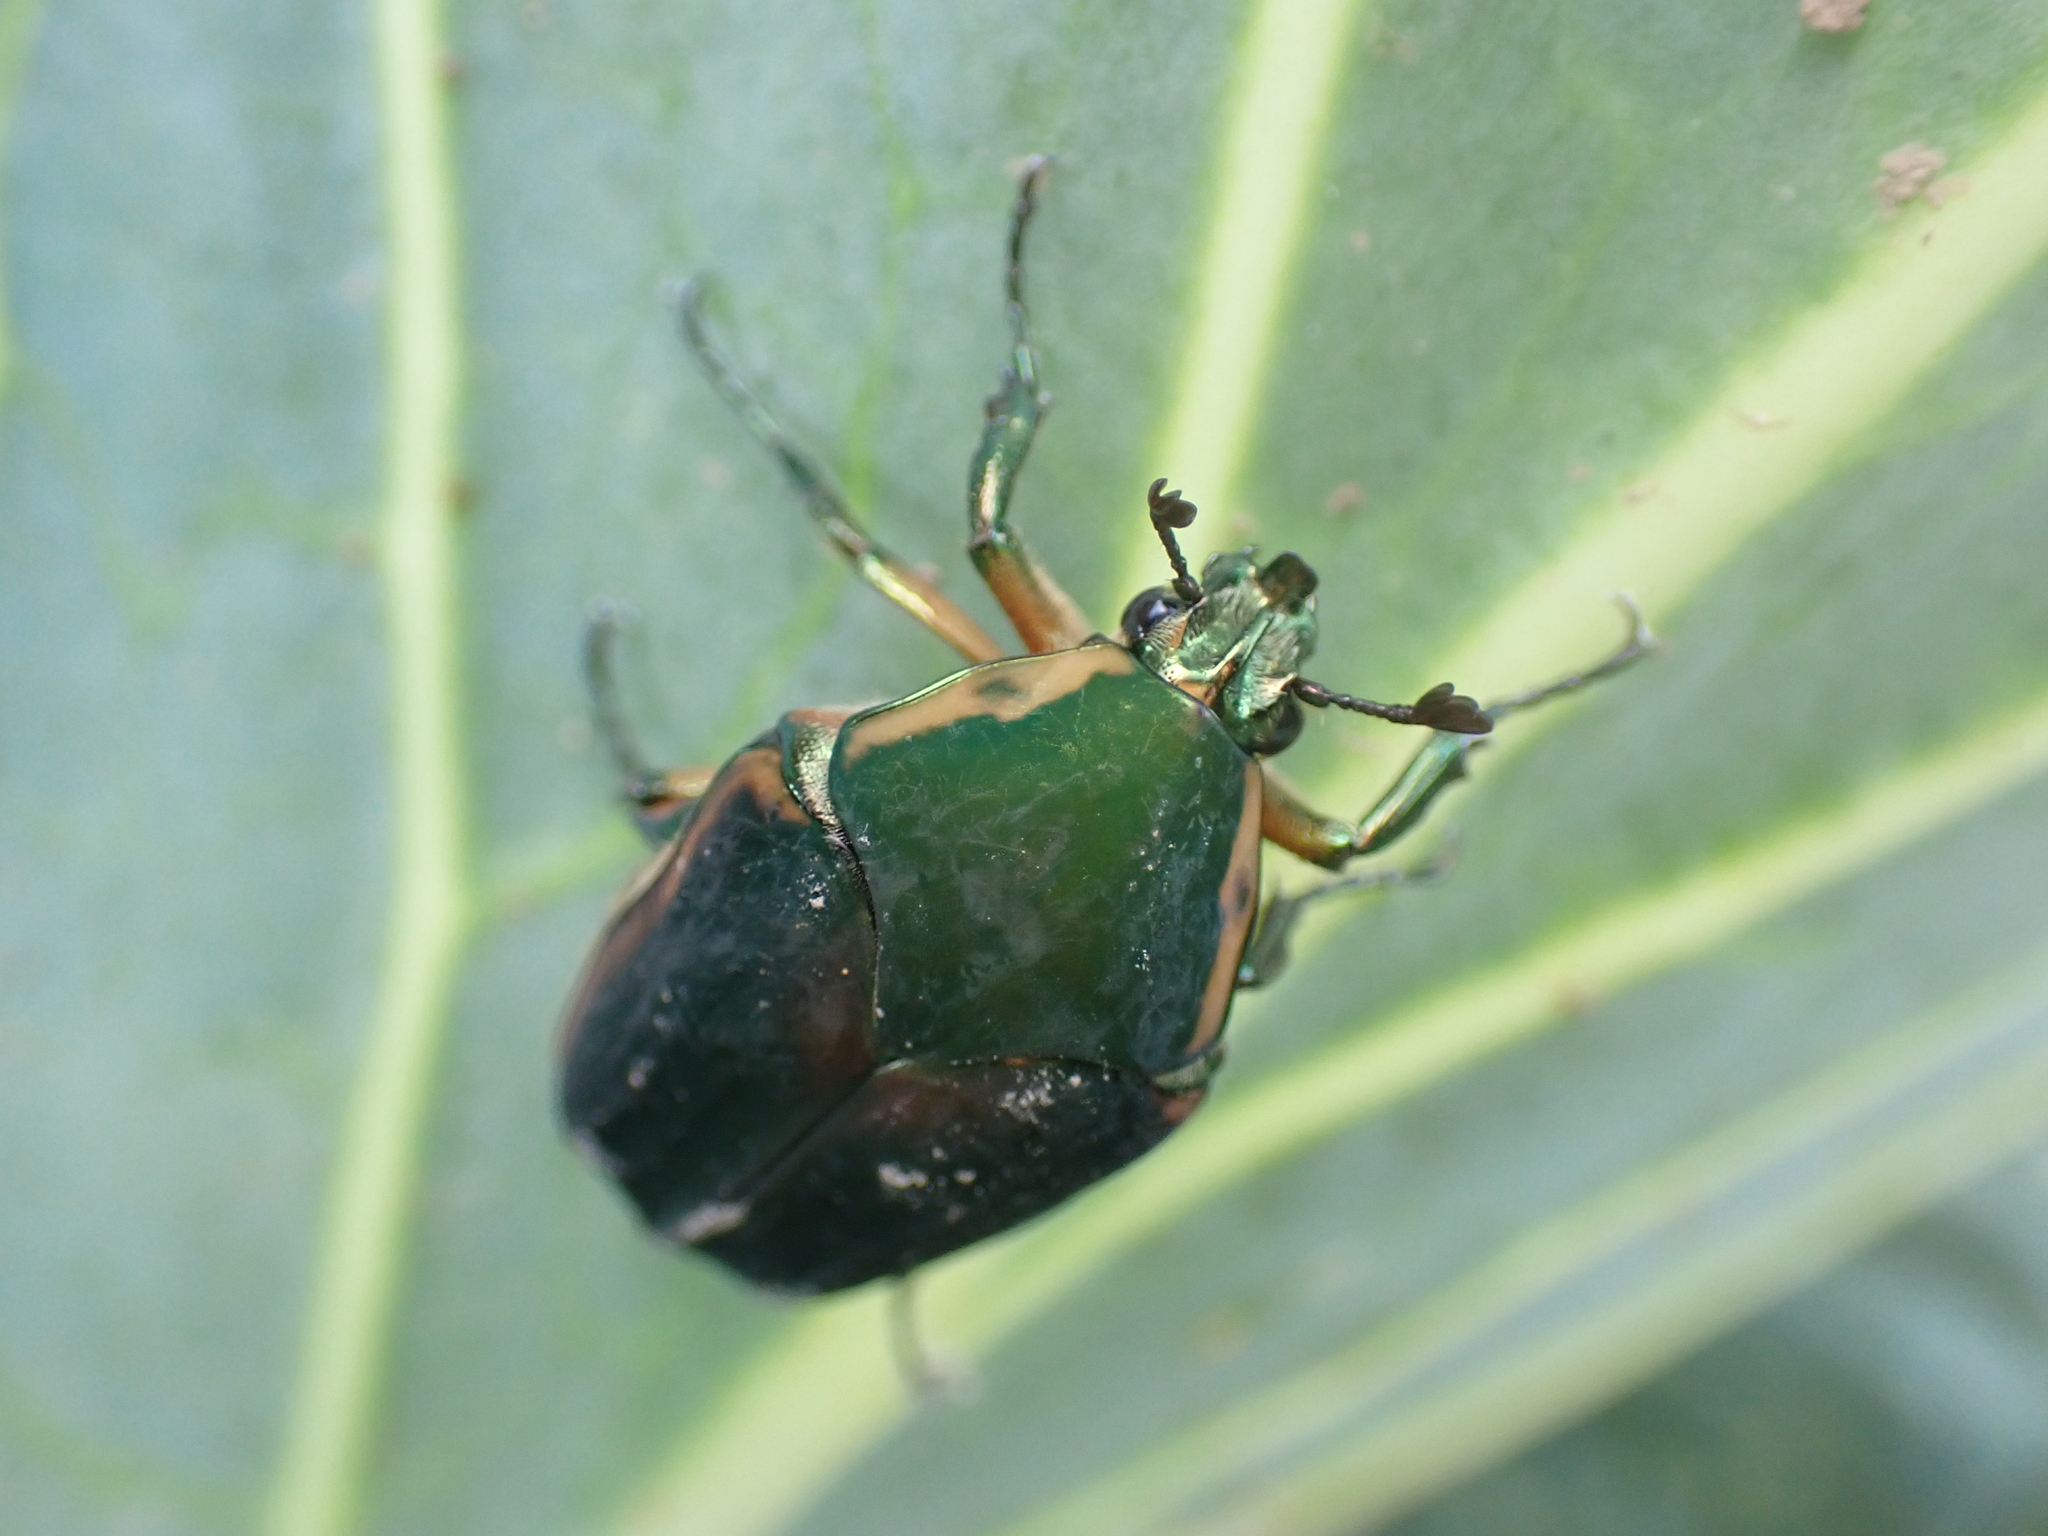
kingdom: Animalia
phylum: Arthropoda
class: Insecta
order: Coleoptera
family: Scarabaeidae
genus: Cotinis
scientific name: Cotinis nitida
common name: Common green june beetle
